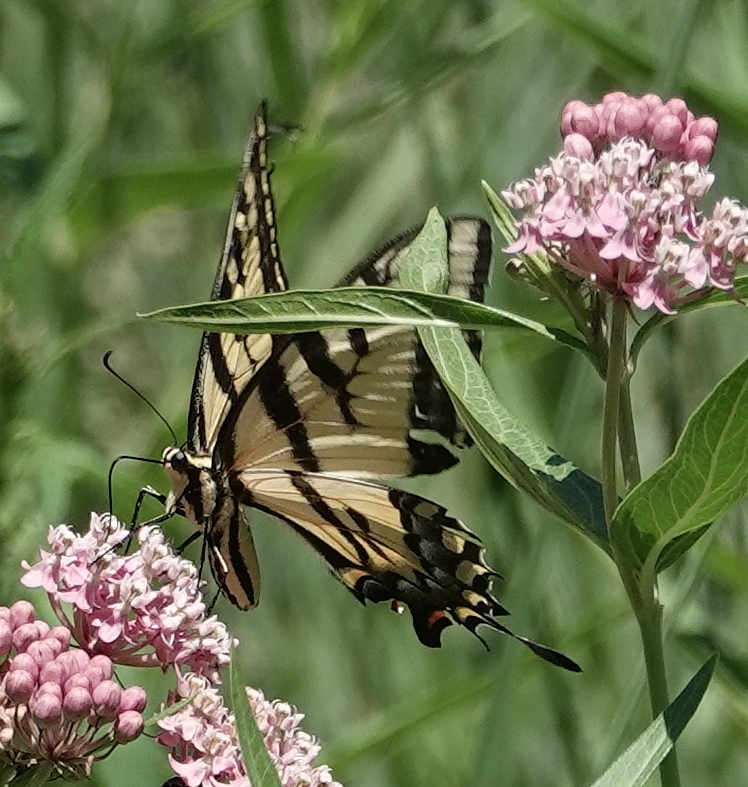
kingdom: Animalia
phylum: Arthropoda
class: Insecta
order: Lepidoptera
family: Papilionidae
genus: Papilio
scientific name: Papilio multicaudata
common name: Two-tailed tiger swallowtail
